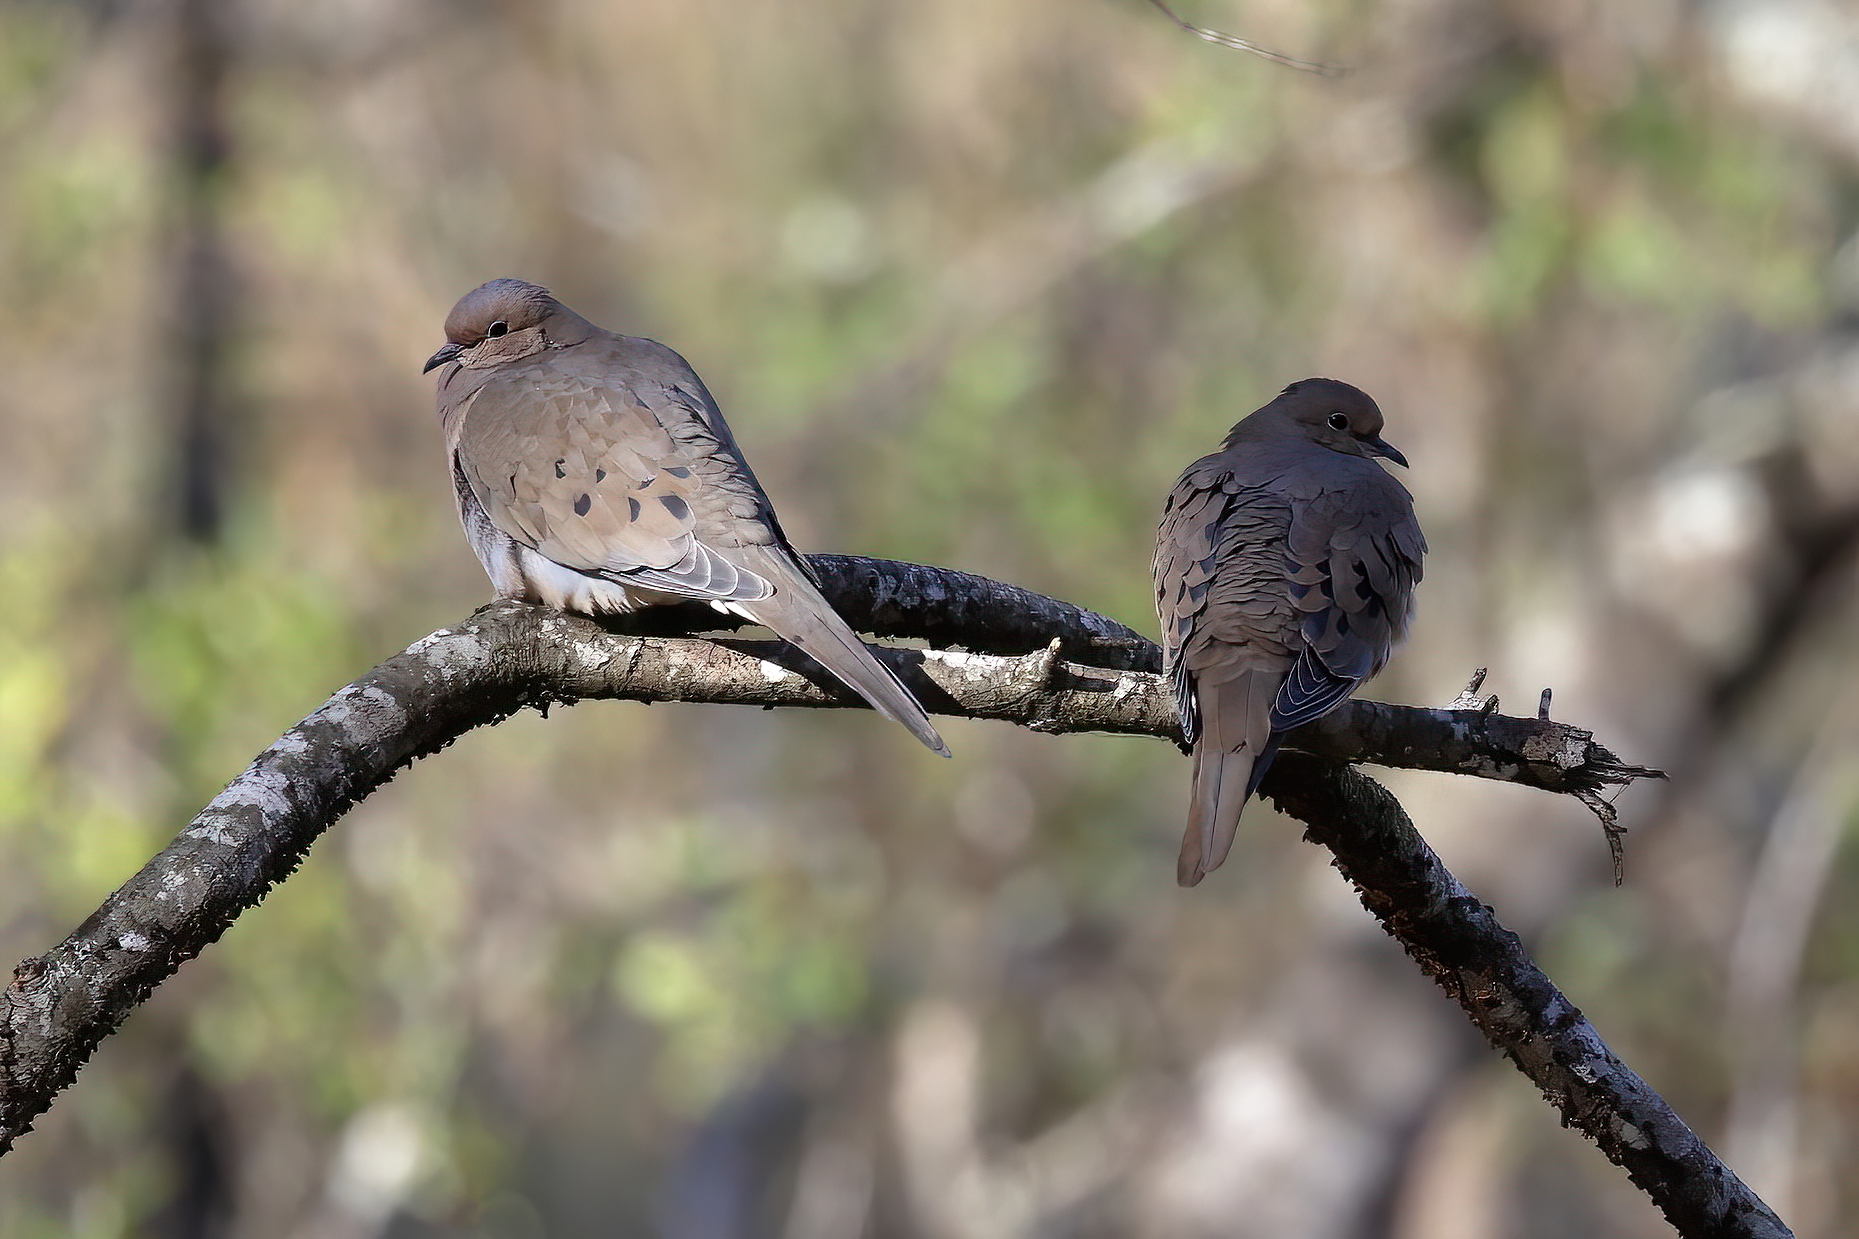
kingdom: Animalia
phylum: Chordata
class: Aves
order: Columbiformes
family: Columbidae
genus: Zenaida
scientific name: Zenaida macroura
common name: Mourning dove
